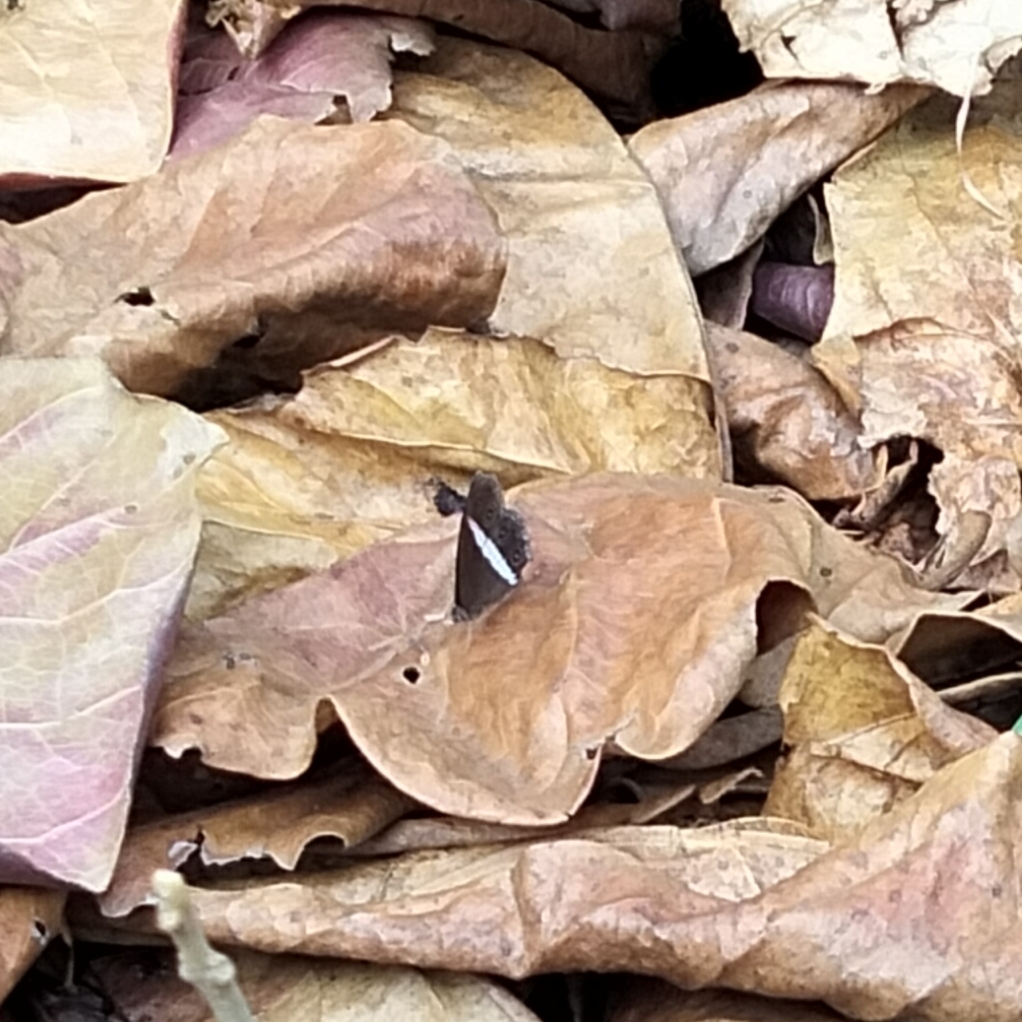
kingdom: Animalia
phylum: Arthropoda
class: Insecta
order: Lepidoptera
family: Nymphalidae
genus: Orsotriaena
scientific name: Orsotriaena medus
